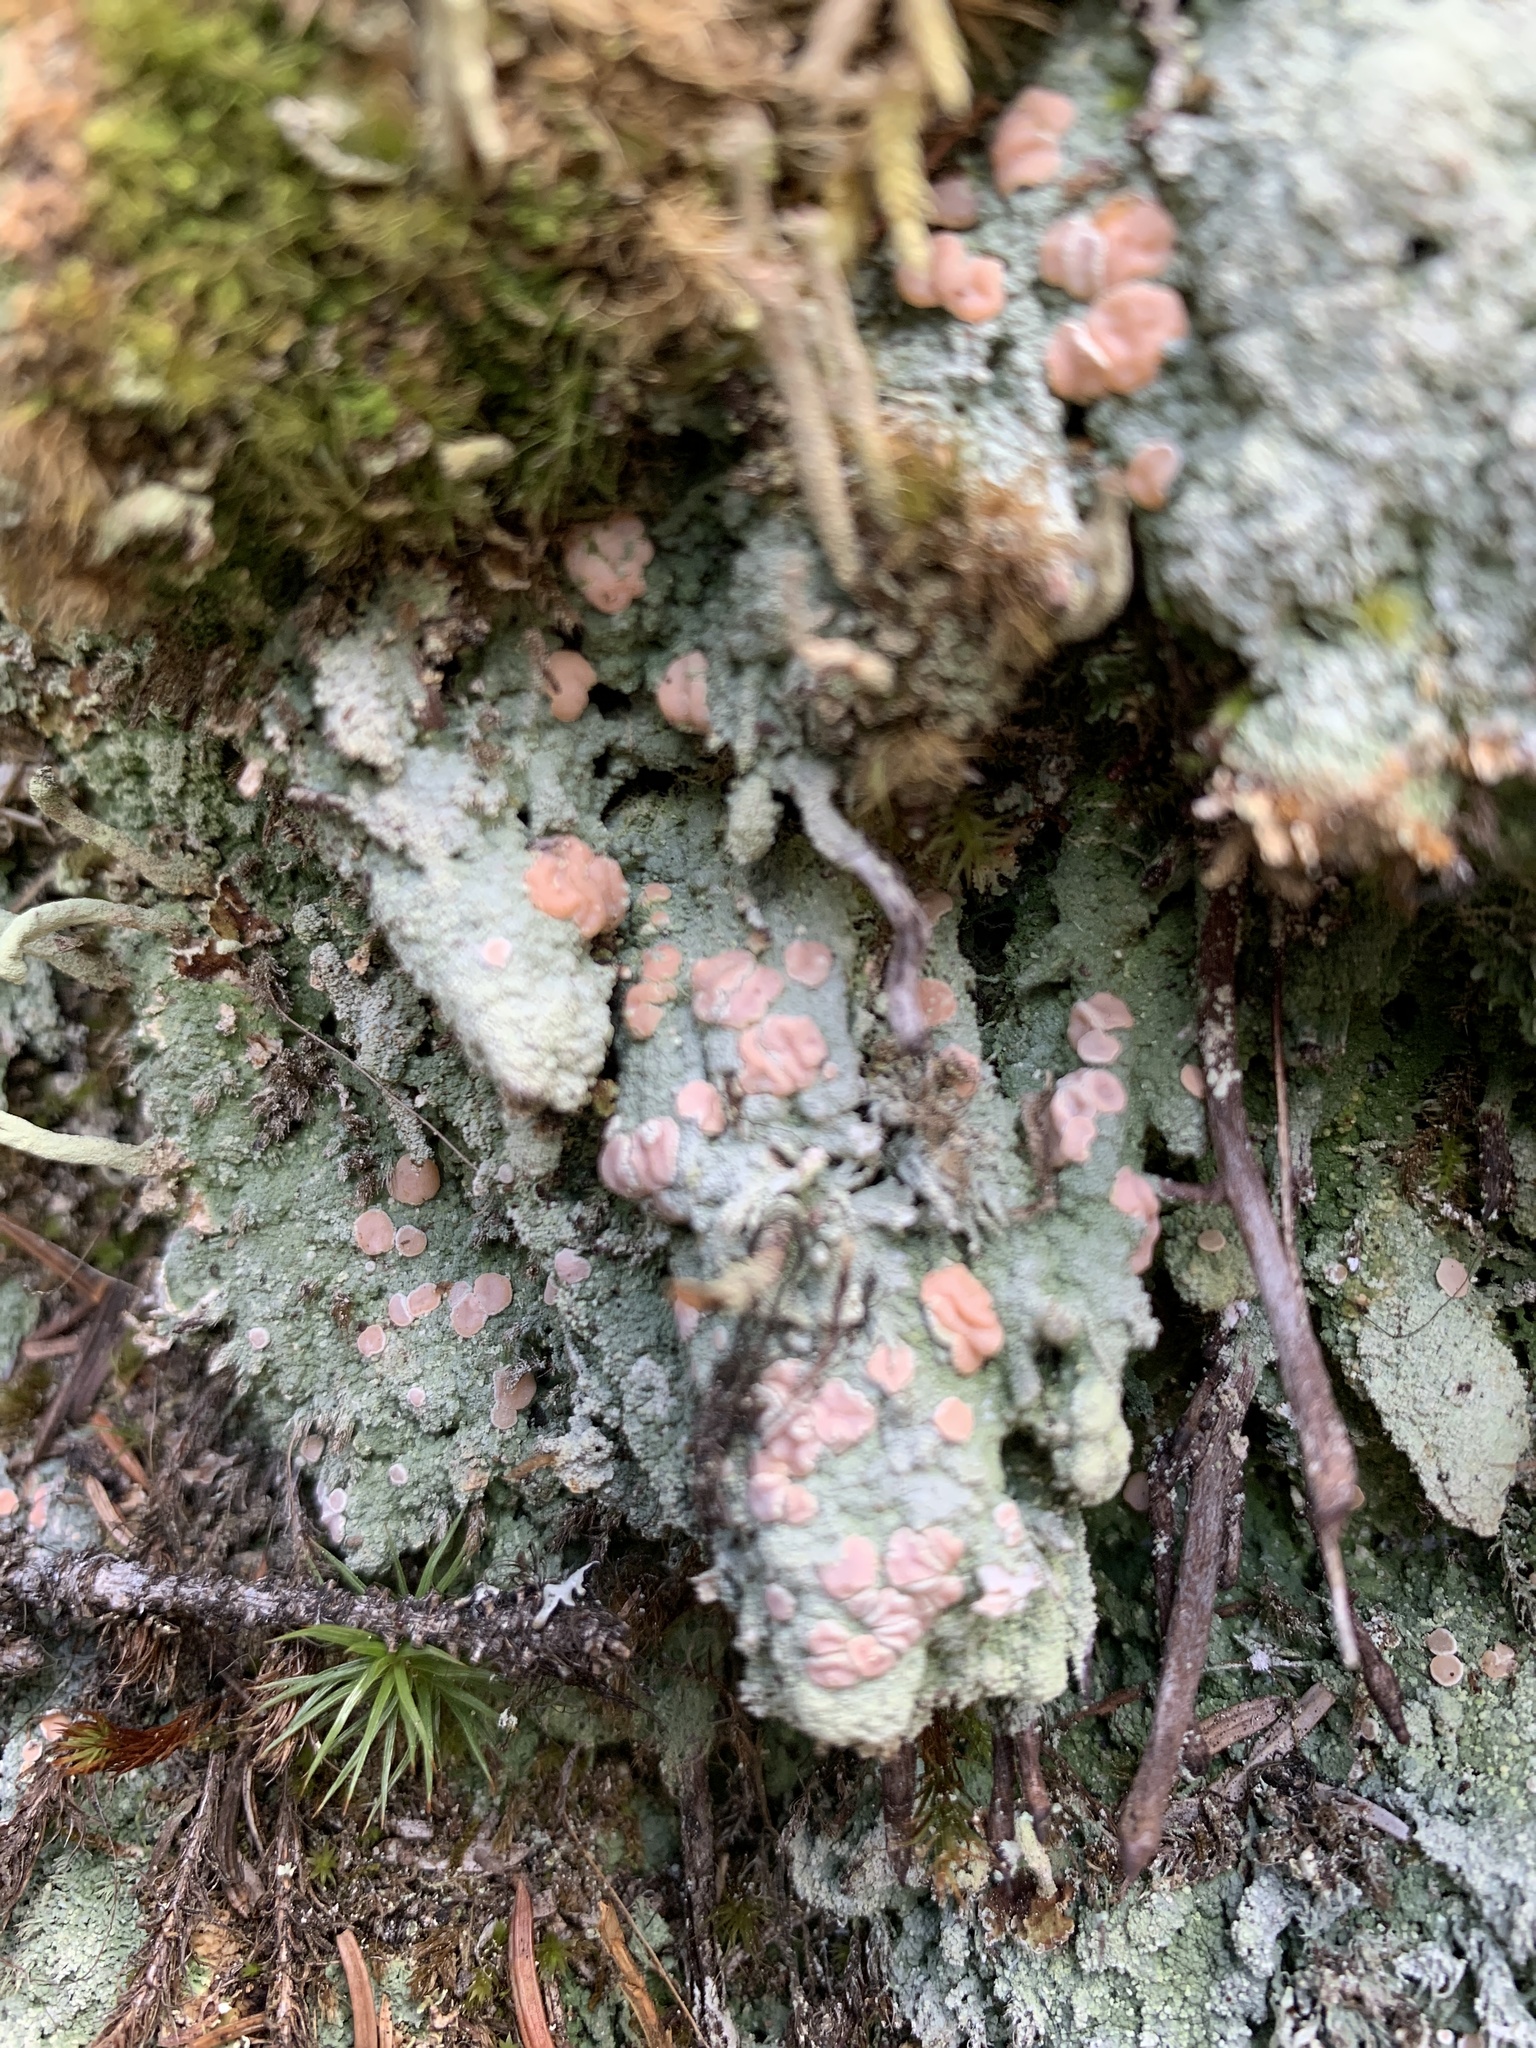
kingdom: Fungi
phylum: Ascomycota
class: Lecanoromycetes
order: Pertusariales
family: Icmadophilaceae
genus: Icmadophila
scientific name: Icmadophila ericetorum
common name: Candy lichen
